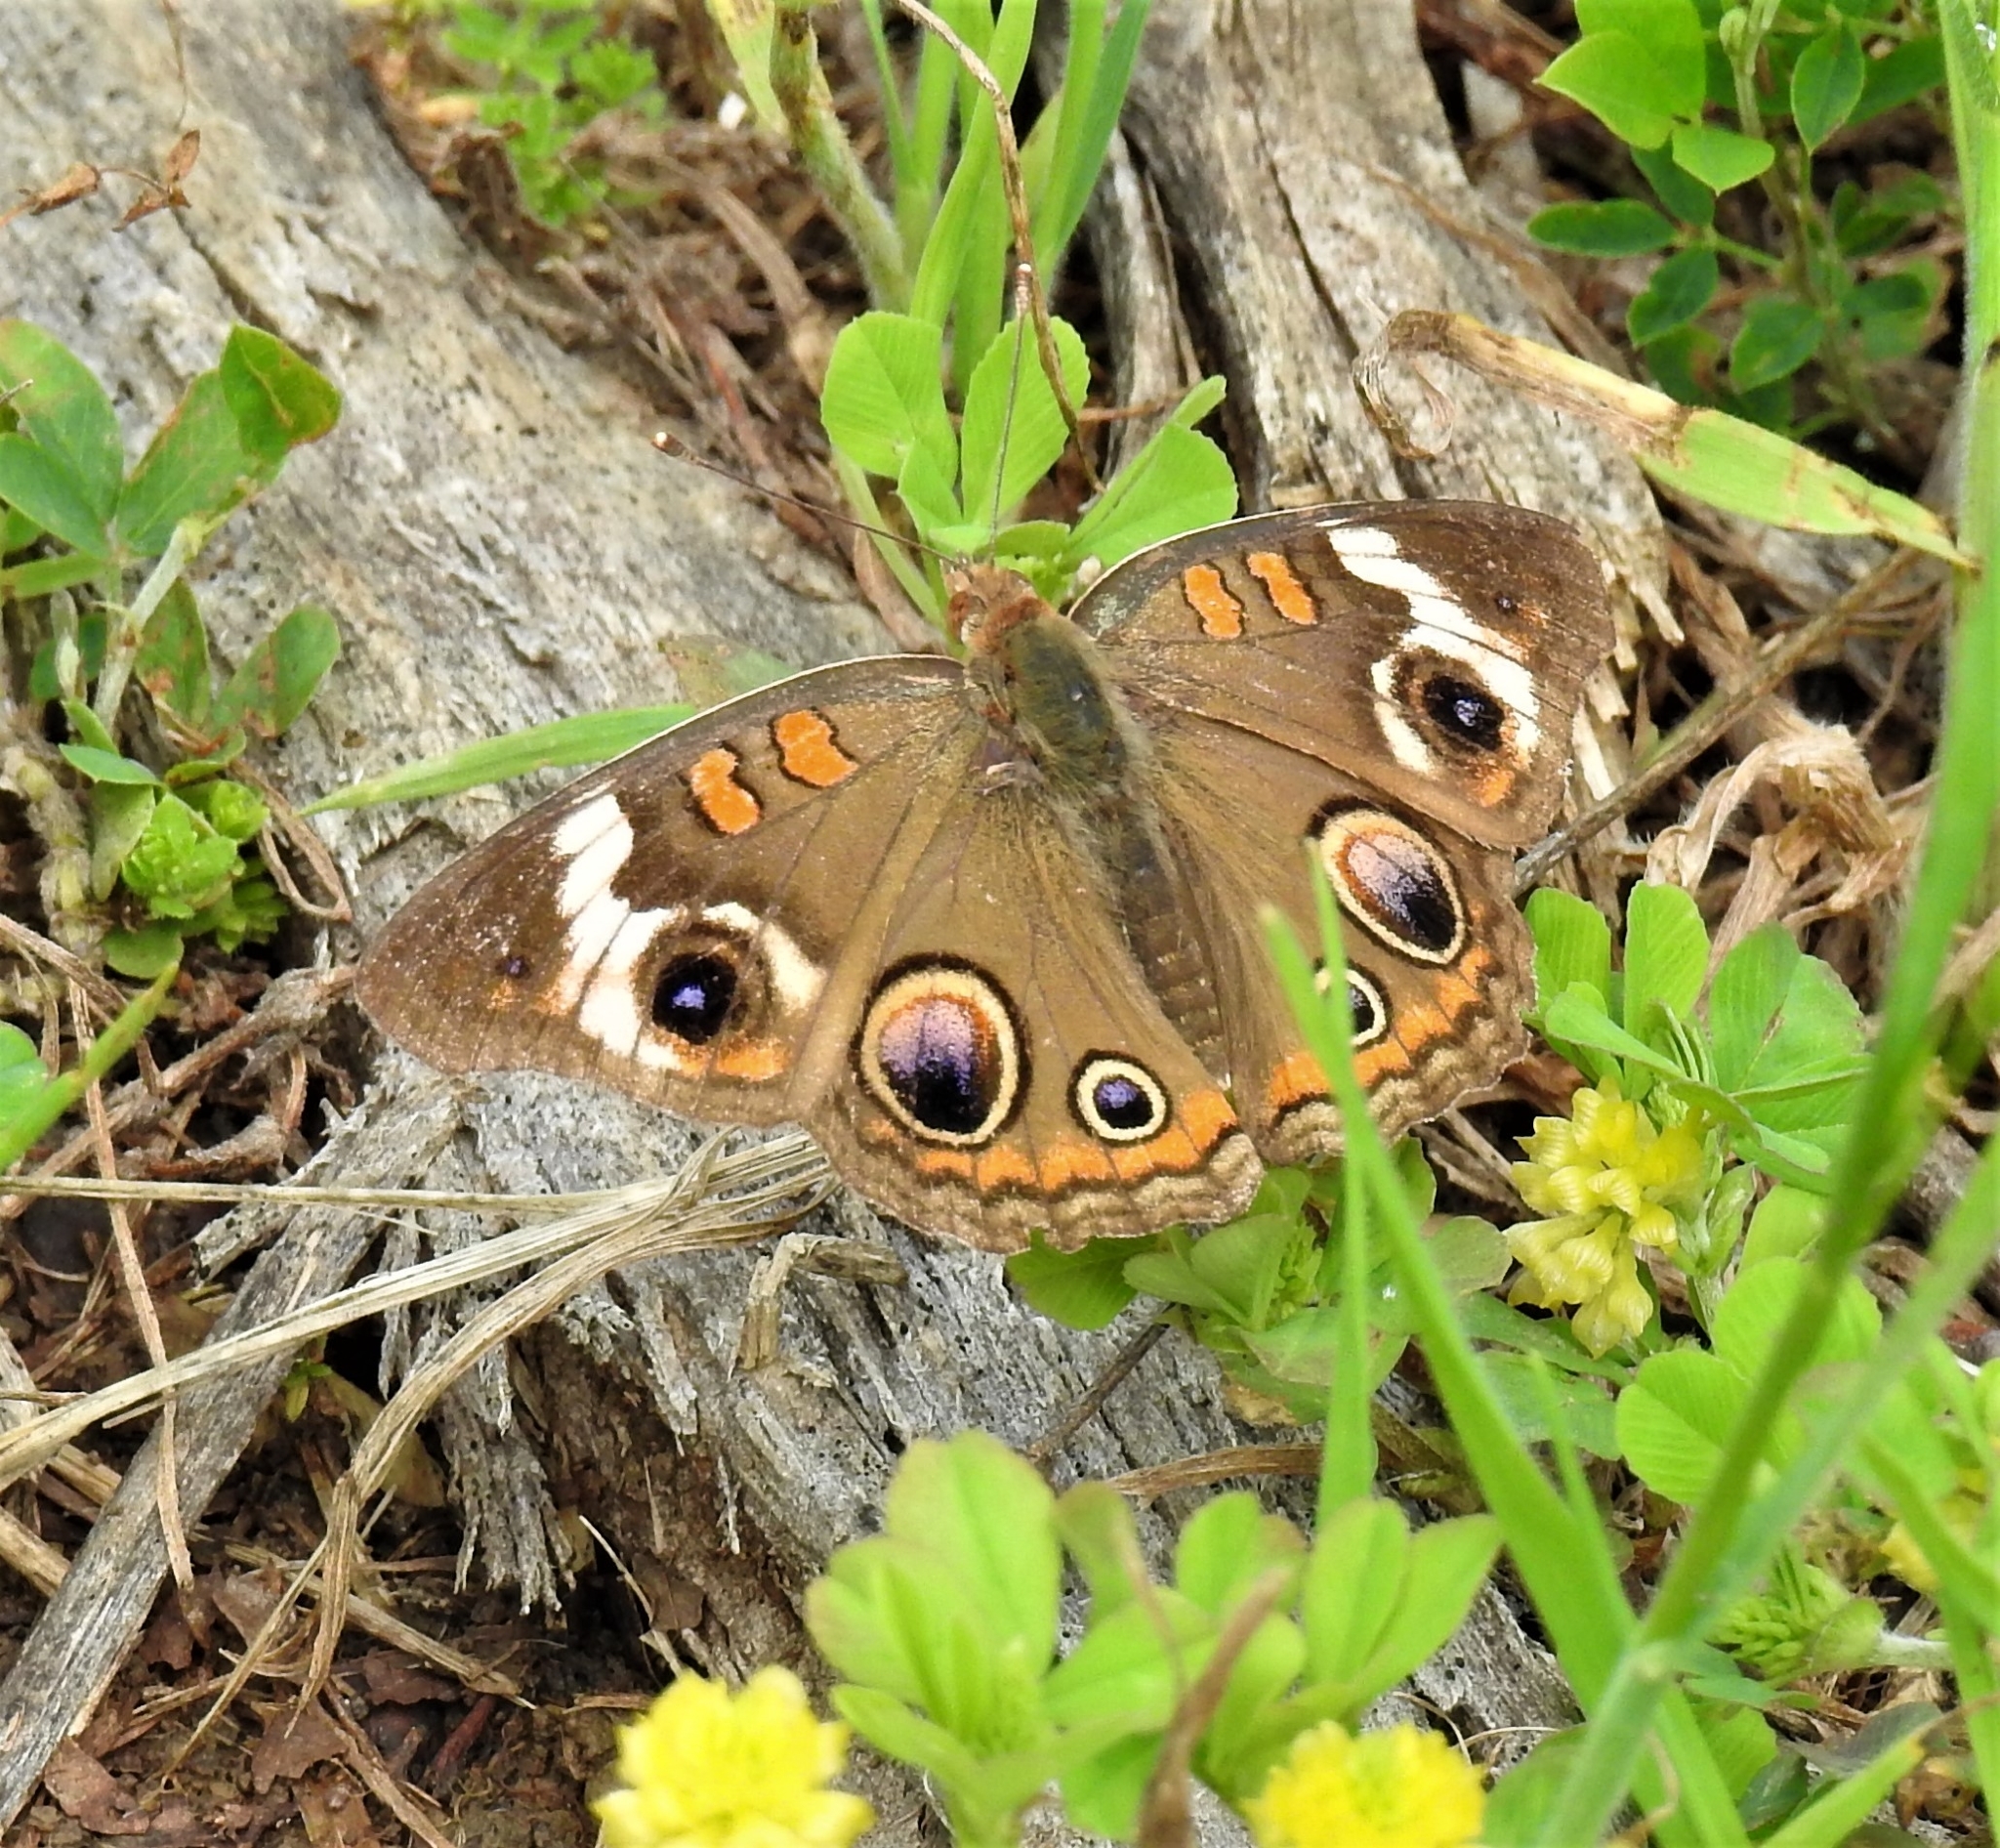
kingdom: Animalia
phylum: Arthropoda
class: Insecta
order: Lepidoptera
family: Nymphalidae
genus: Junonia
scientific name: Junonia coenia
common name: Common buckeye
